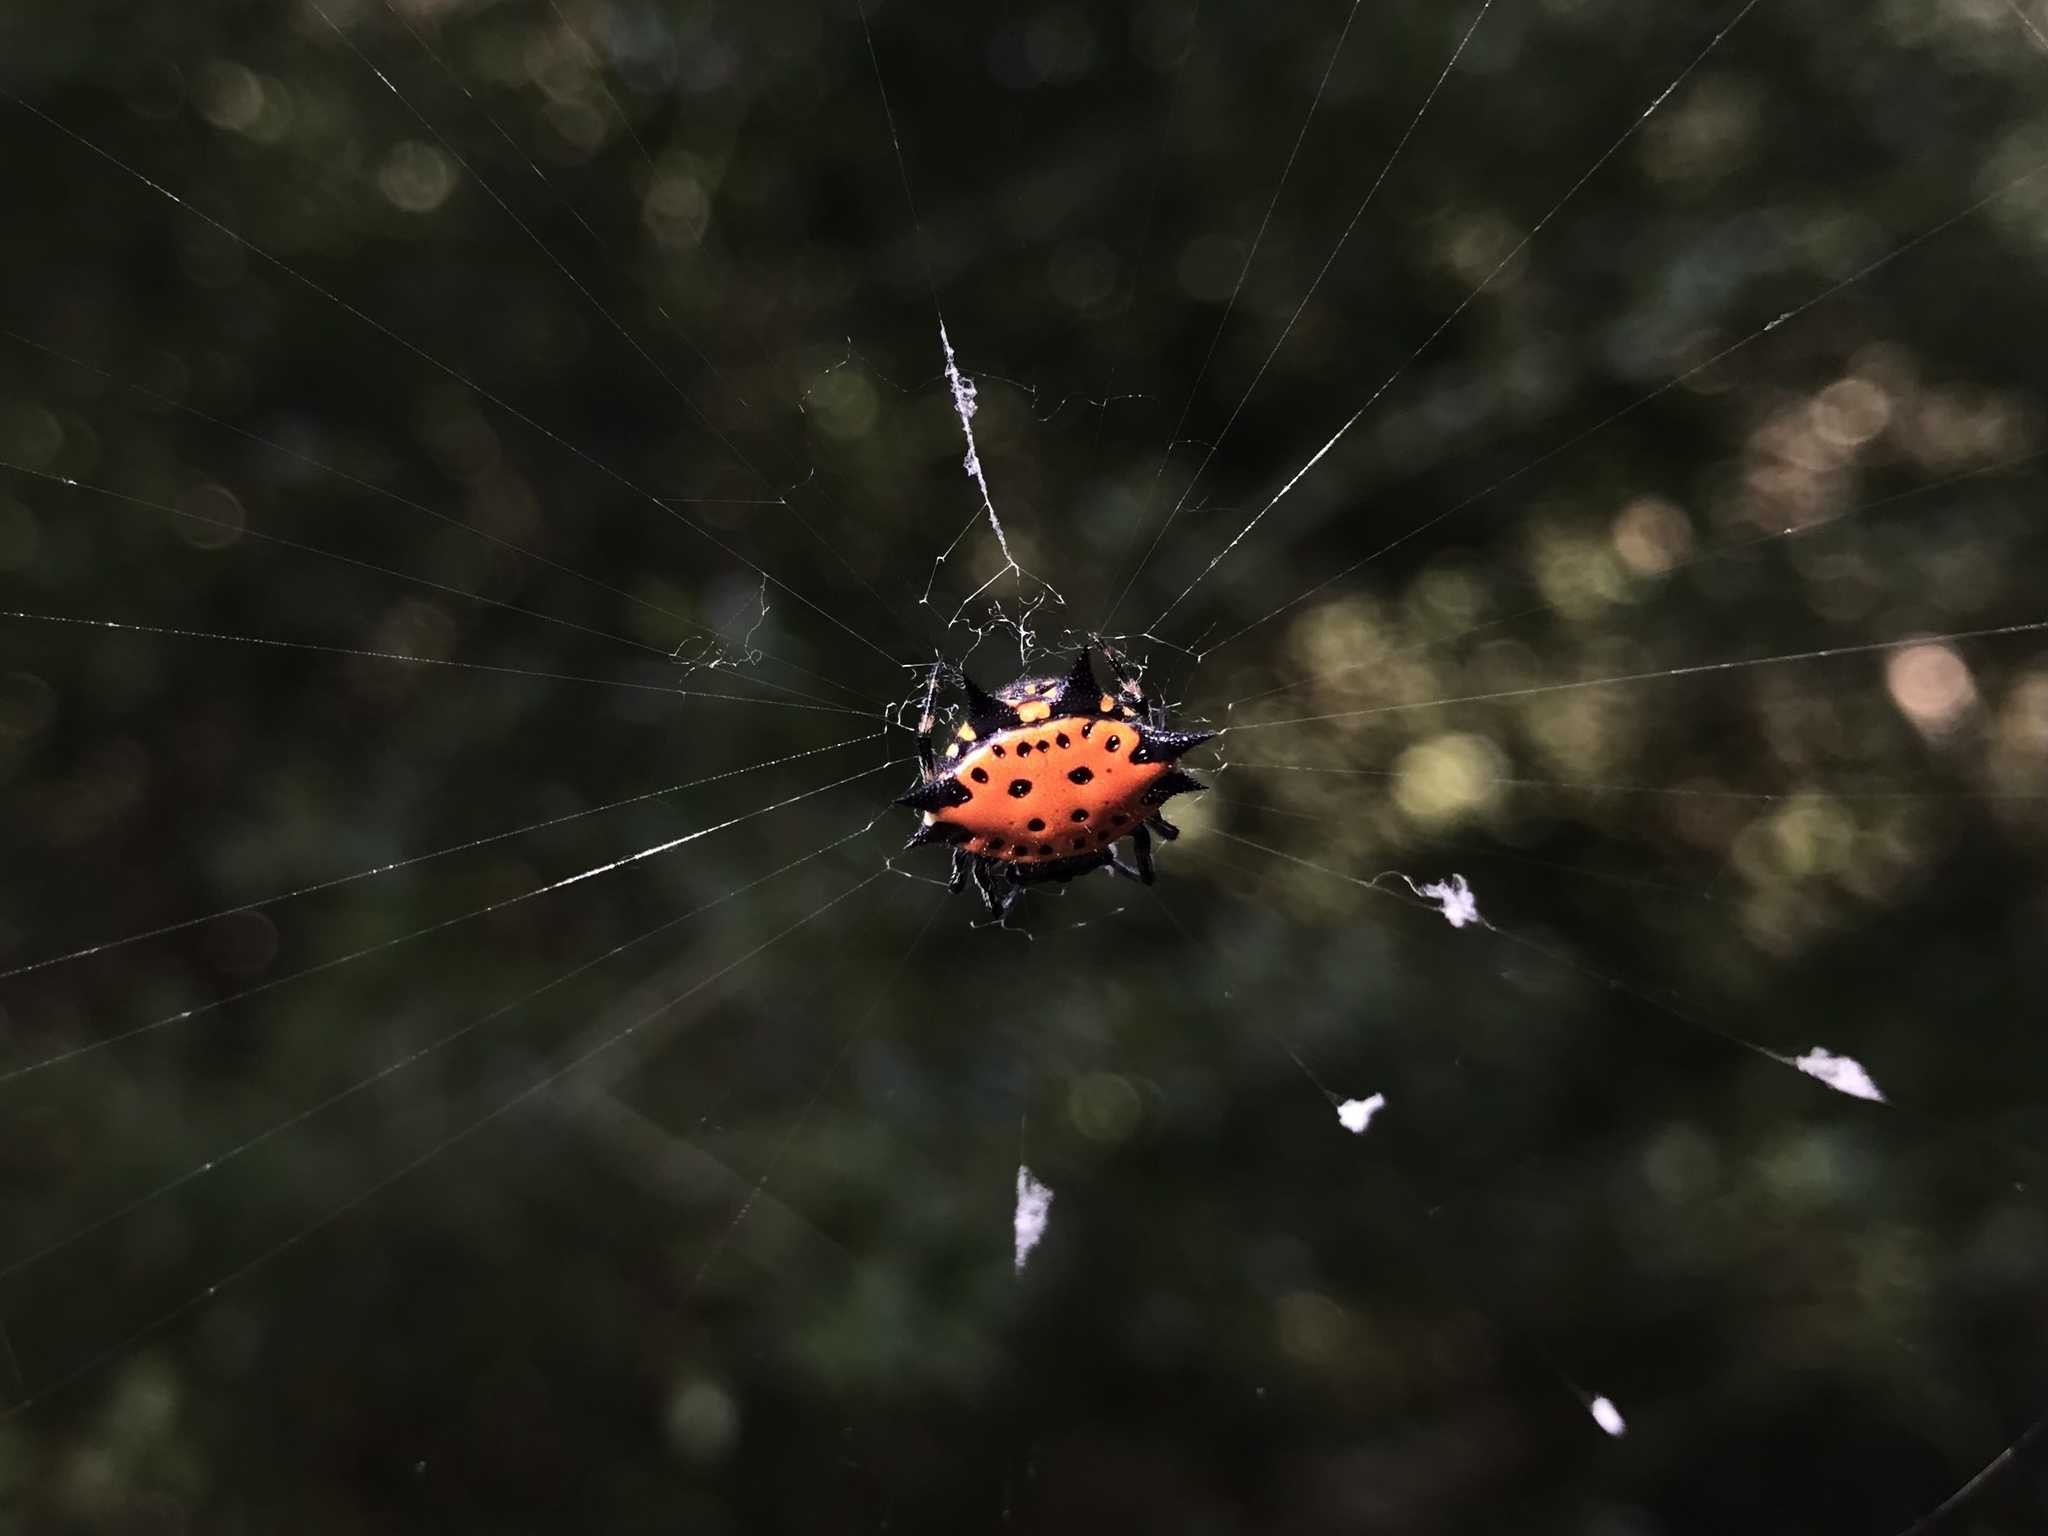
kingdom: Animalia
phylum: Arthropoda
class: Arachnida
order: Araneae
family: Araneidae
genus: Gasteracantha
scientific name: Gasteracantha cancriformis
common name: Orb weavers
